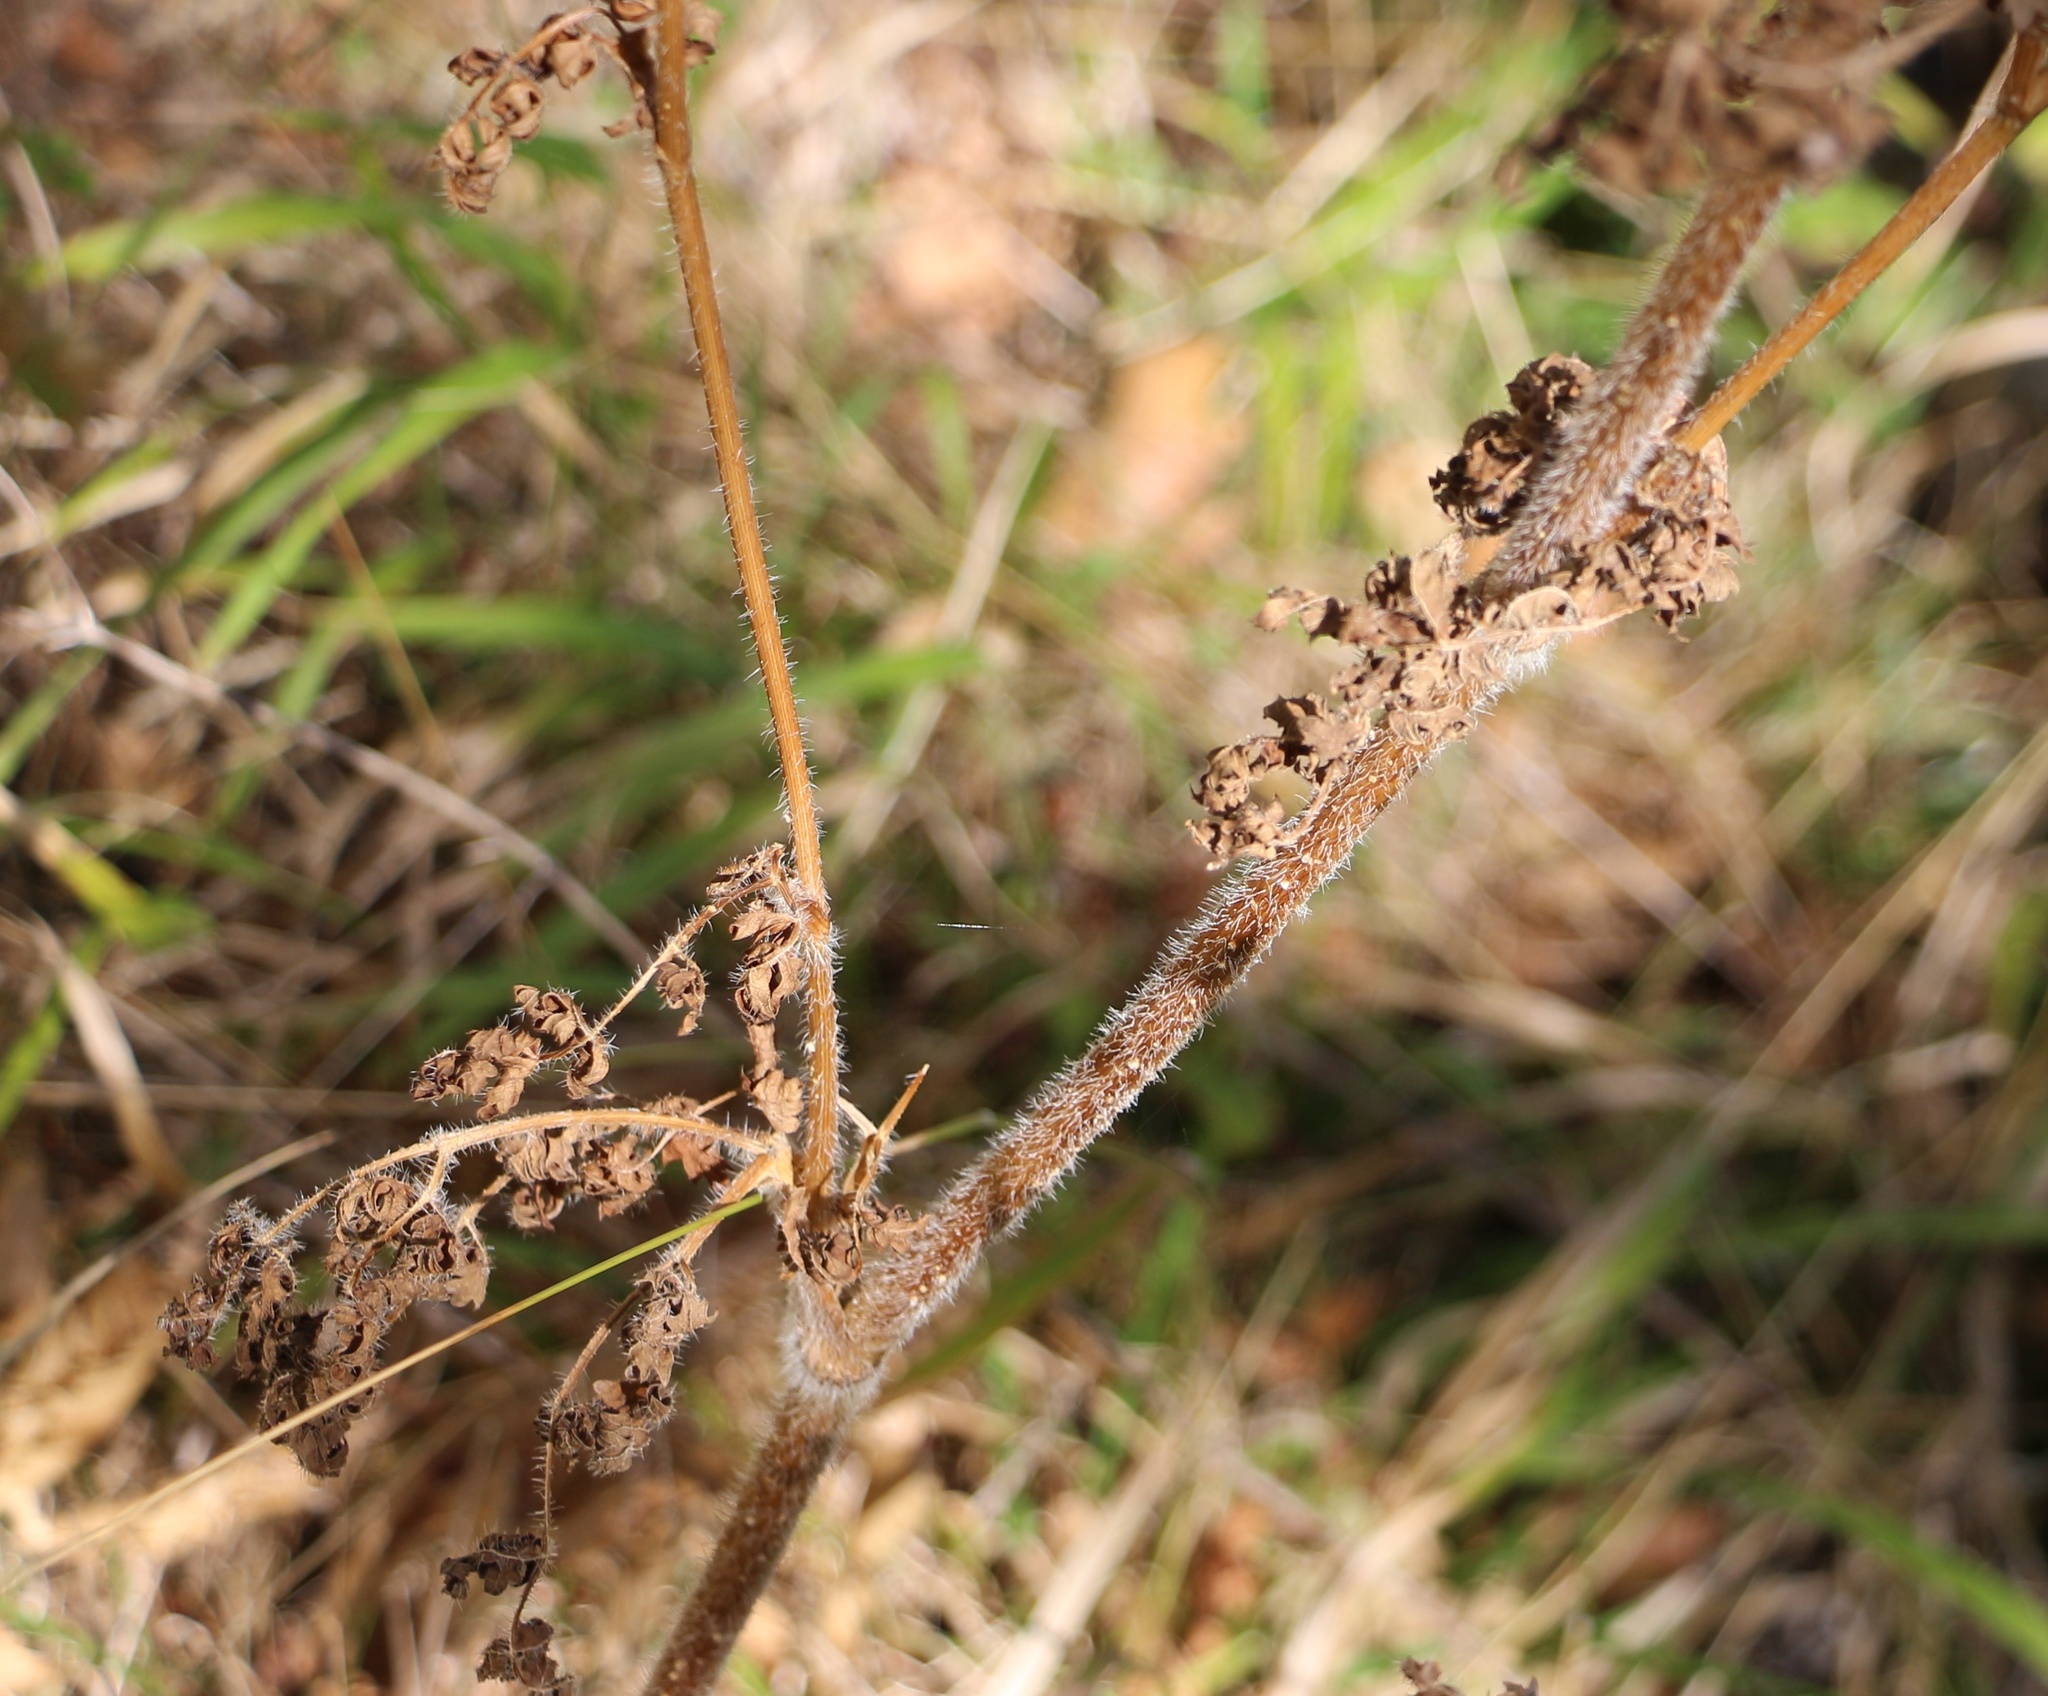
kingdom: Plantae
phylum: Tracheophyta
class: Magnoliopsida
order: Apiales
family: Apiaceae
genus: Silphiodaucus
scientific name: Silphiodaucus hispidus
